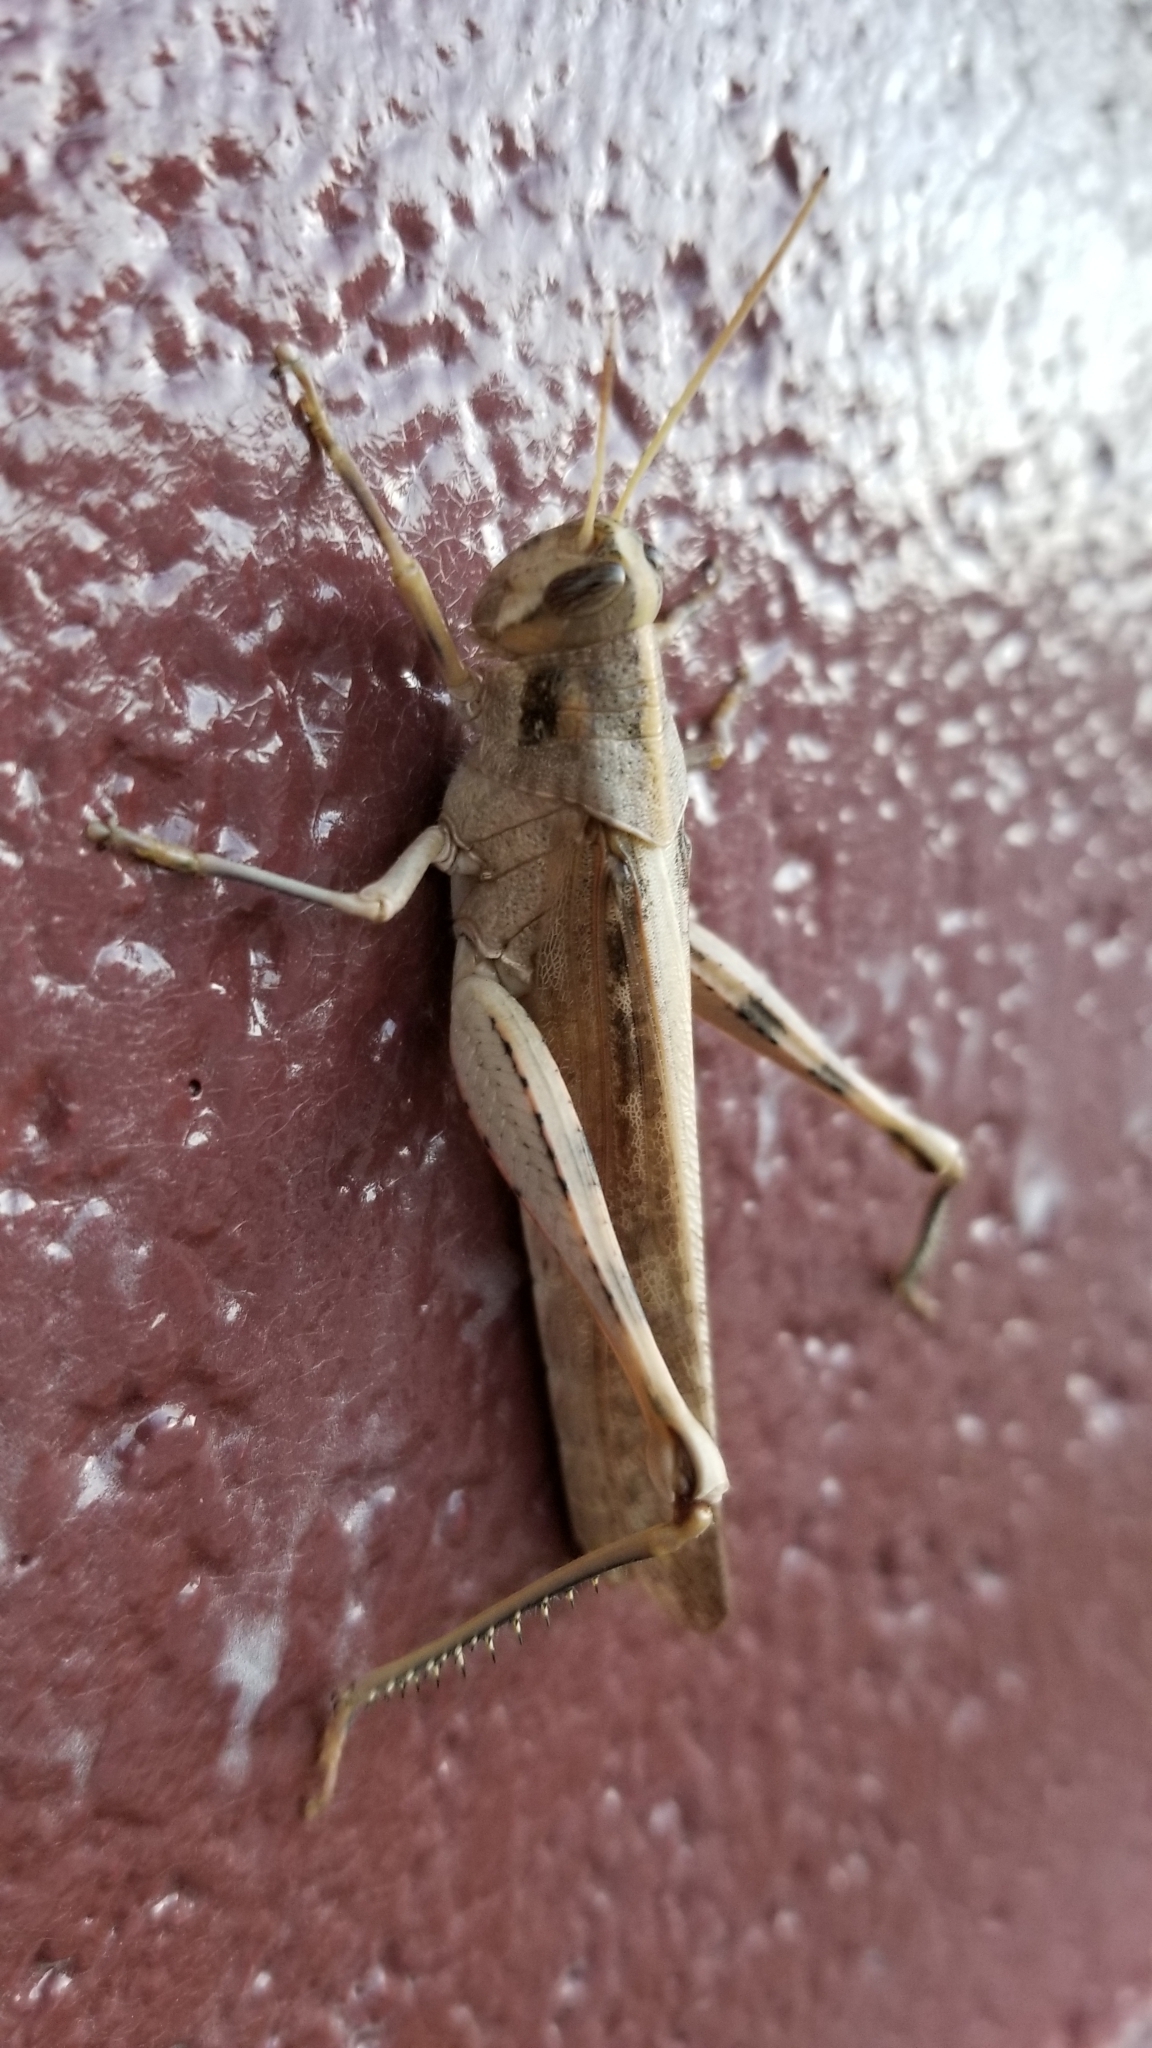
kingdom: Animalia
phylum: Arthropoda
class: Insecta
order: Orthoptera
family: Acrididae
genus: Schistocerca
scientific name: Schistocerca nitens
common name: Vagrant grasshopper
